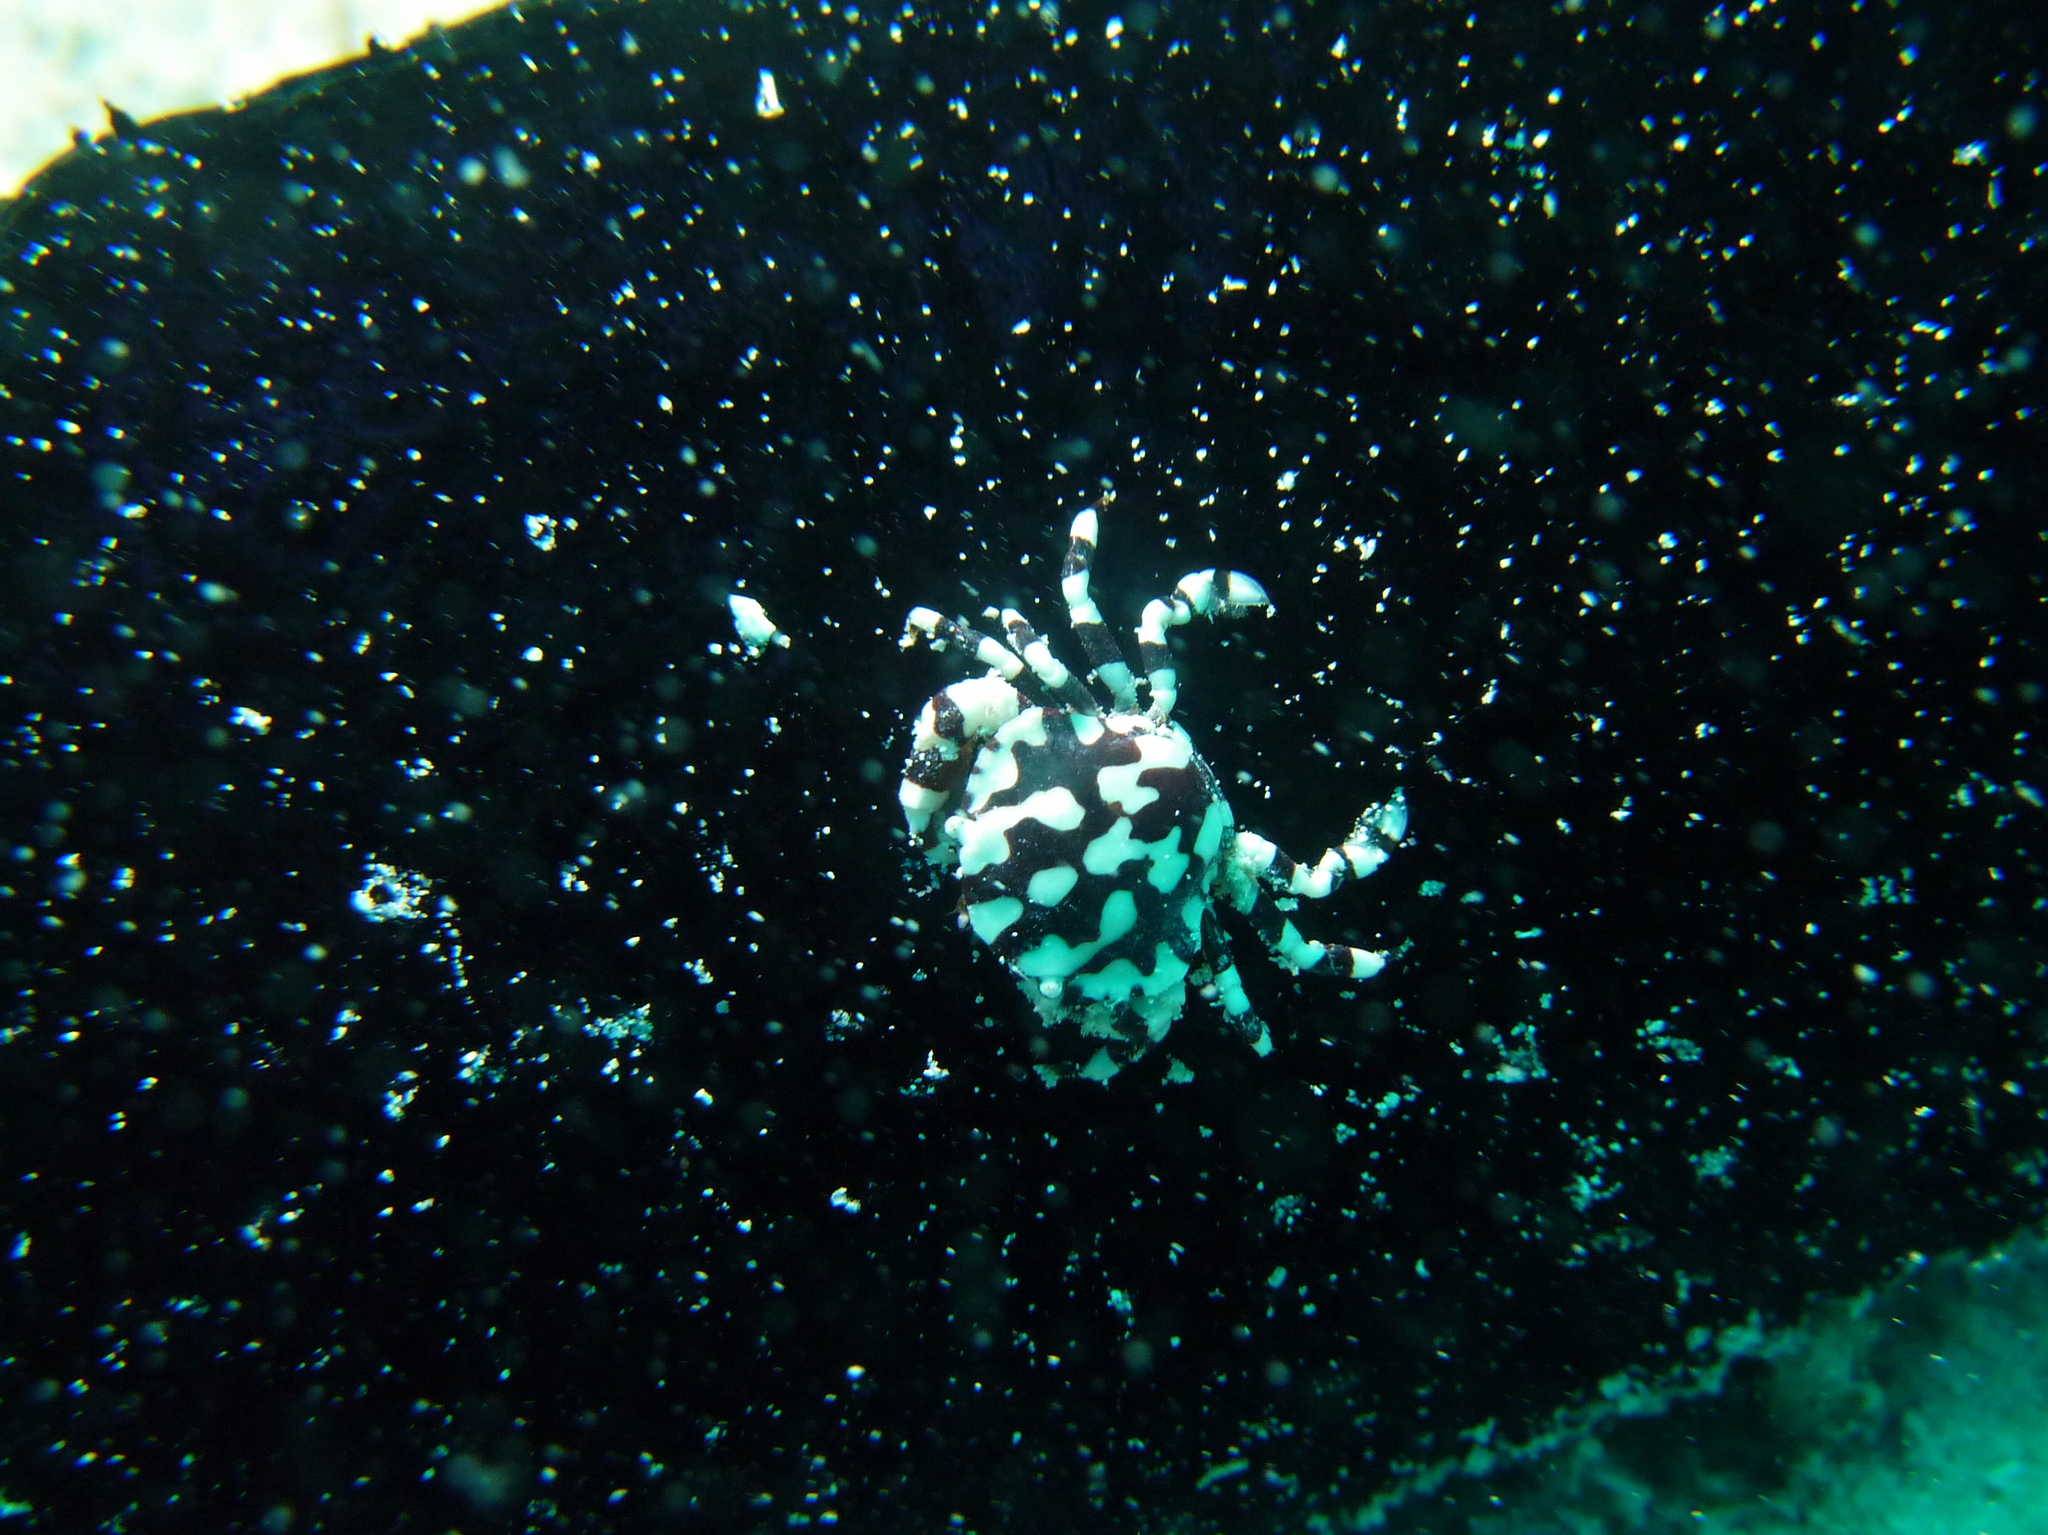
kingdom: Animalia
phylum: Arthropoda
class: Malacostraca
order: Decapoda
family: Portunidae
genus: Lissocarcinus
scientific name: Lissocarcinus orbicularis
